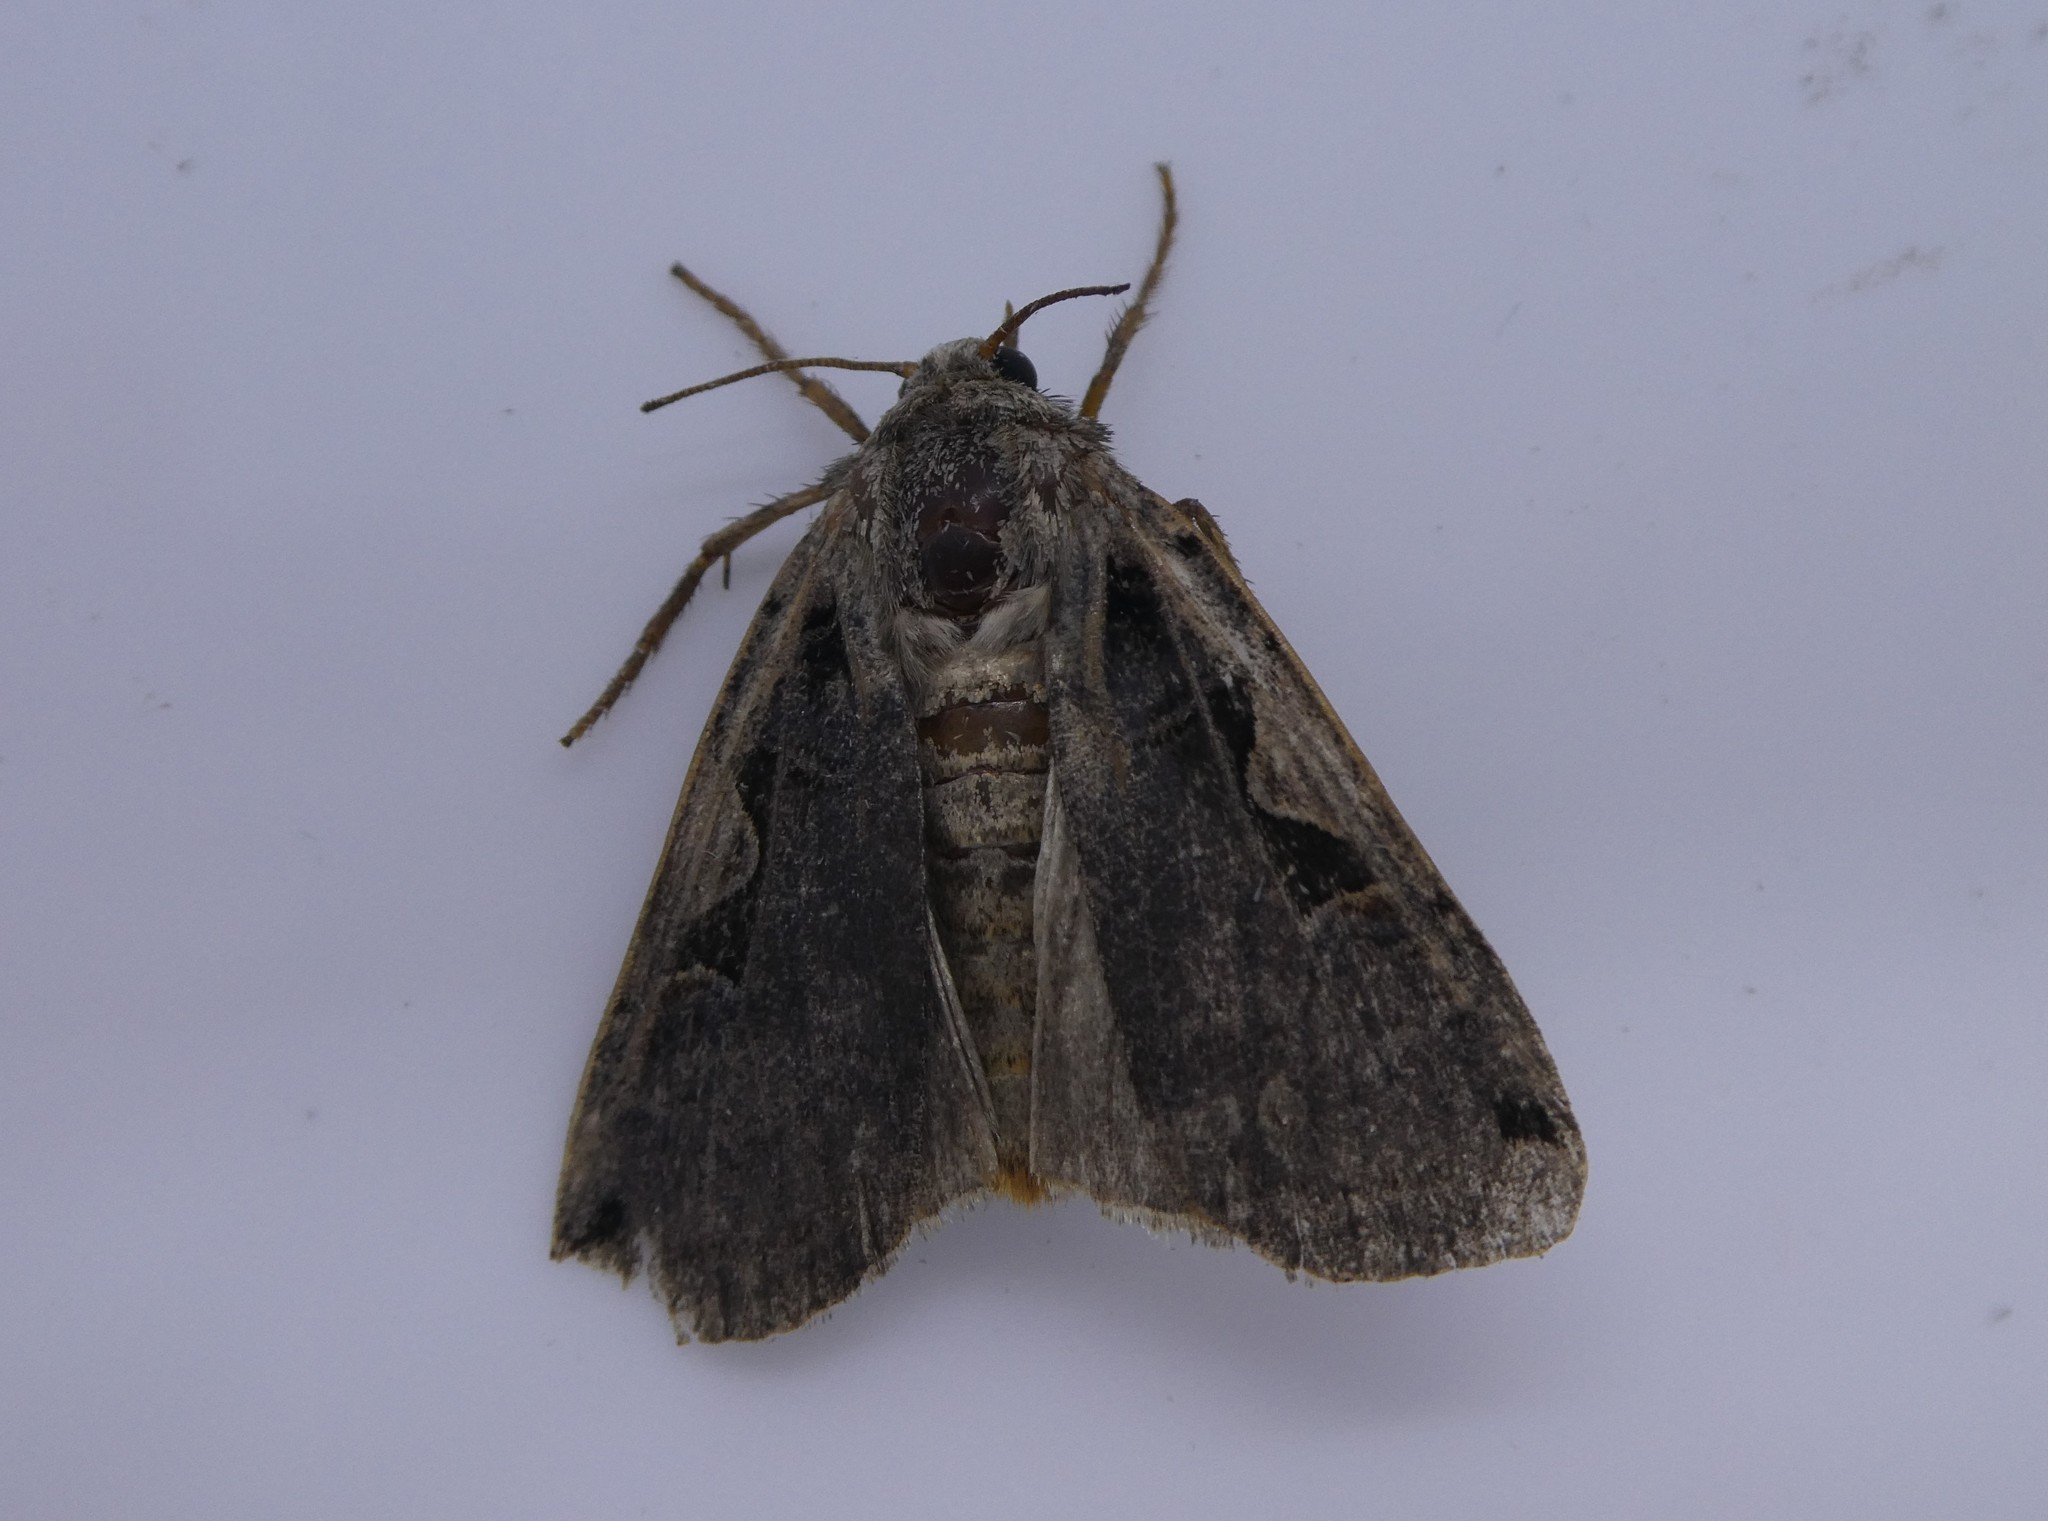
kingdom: Animalia
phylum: Arthropoda
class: Insecta
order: Lepidoptera
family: Noctuidae
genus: Xestia
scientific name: Xestia
